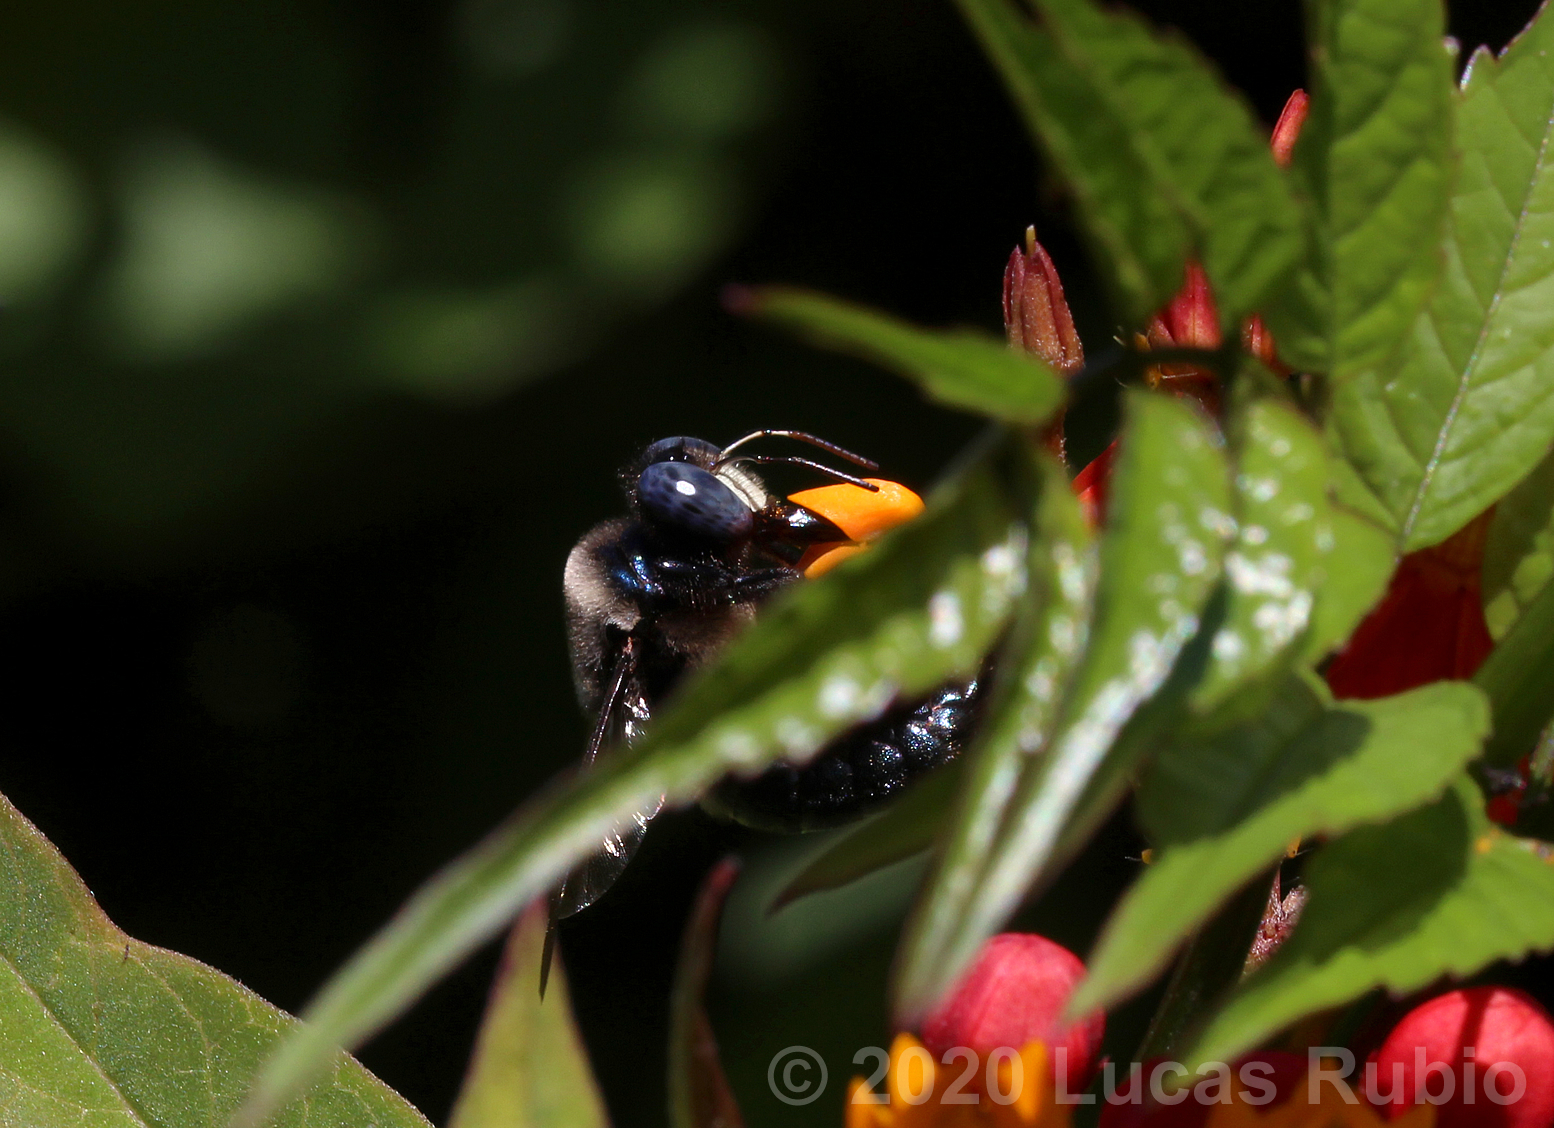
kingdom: Animalia
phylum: Arthropoda
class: Insecta
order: Hymenoptera
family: Apidae
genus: Xylocopa
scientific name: Xylocopa splendidula
